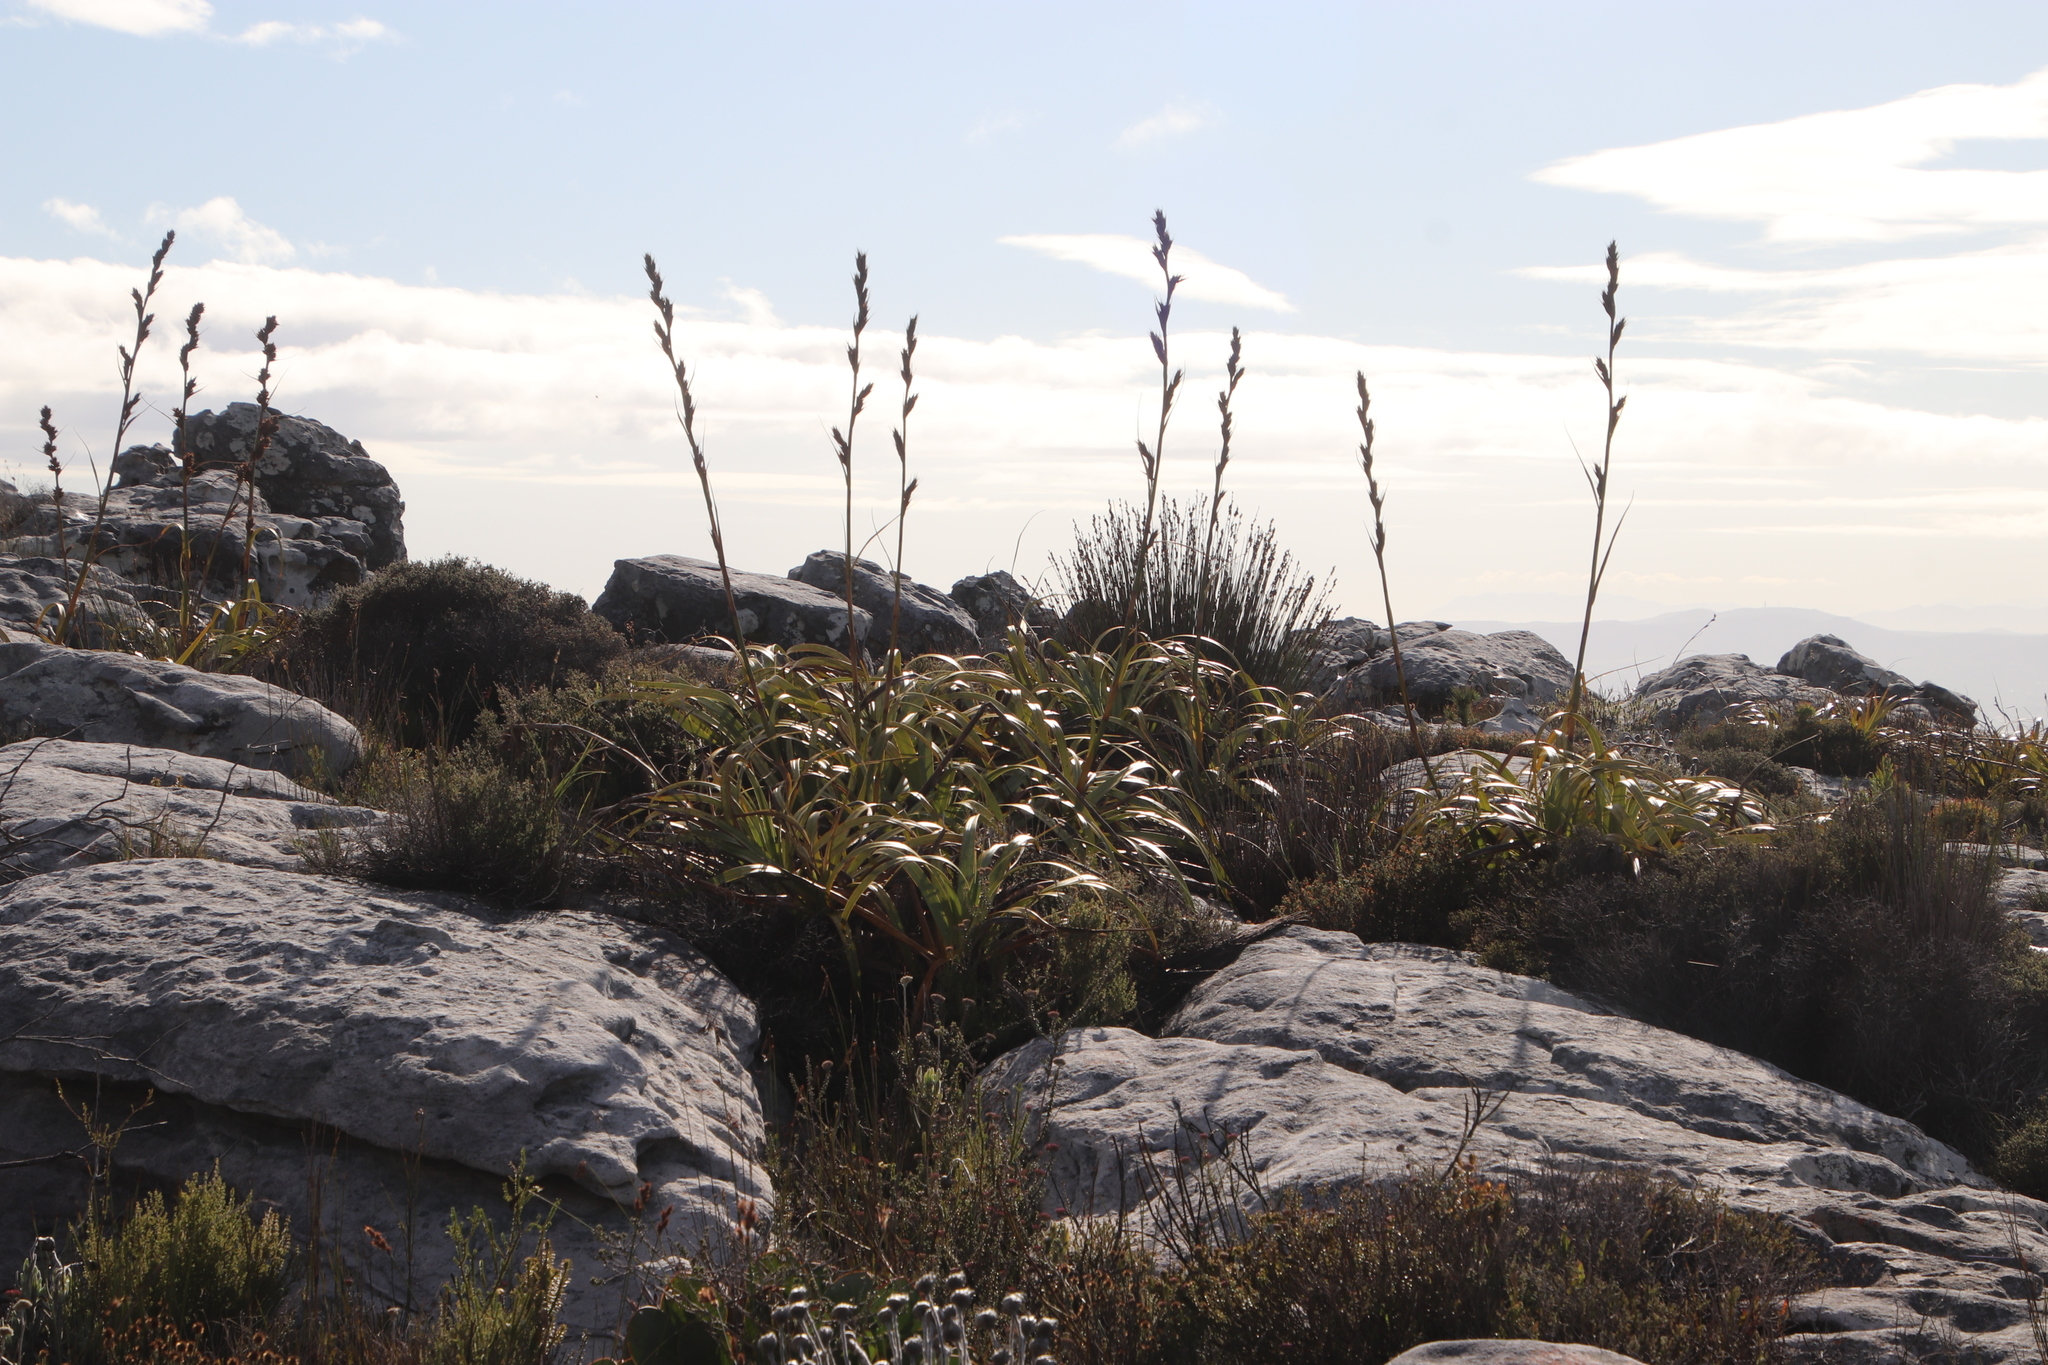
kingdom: Plantae
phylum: Tracheophyta
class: Liliopsida
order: Poales
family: Cyperaceae
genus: Tetraria
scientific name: Tetraria thermalis
